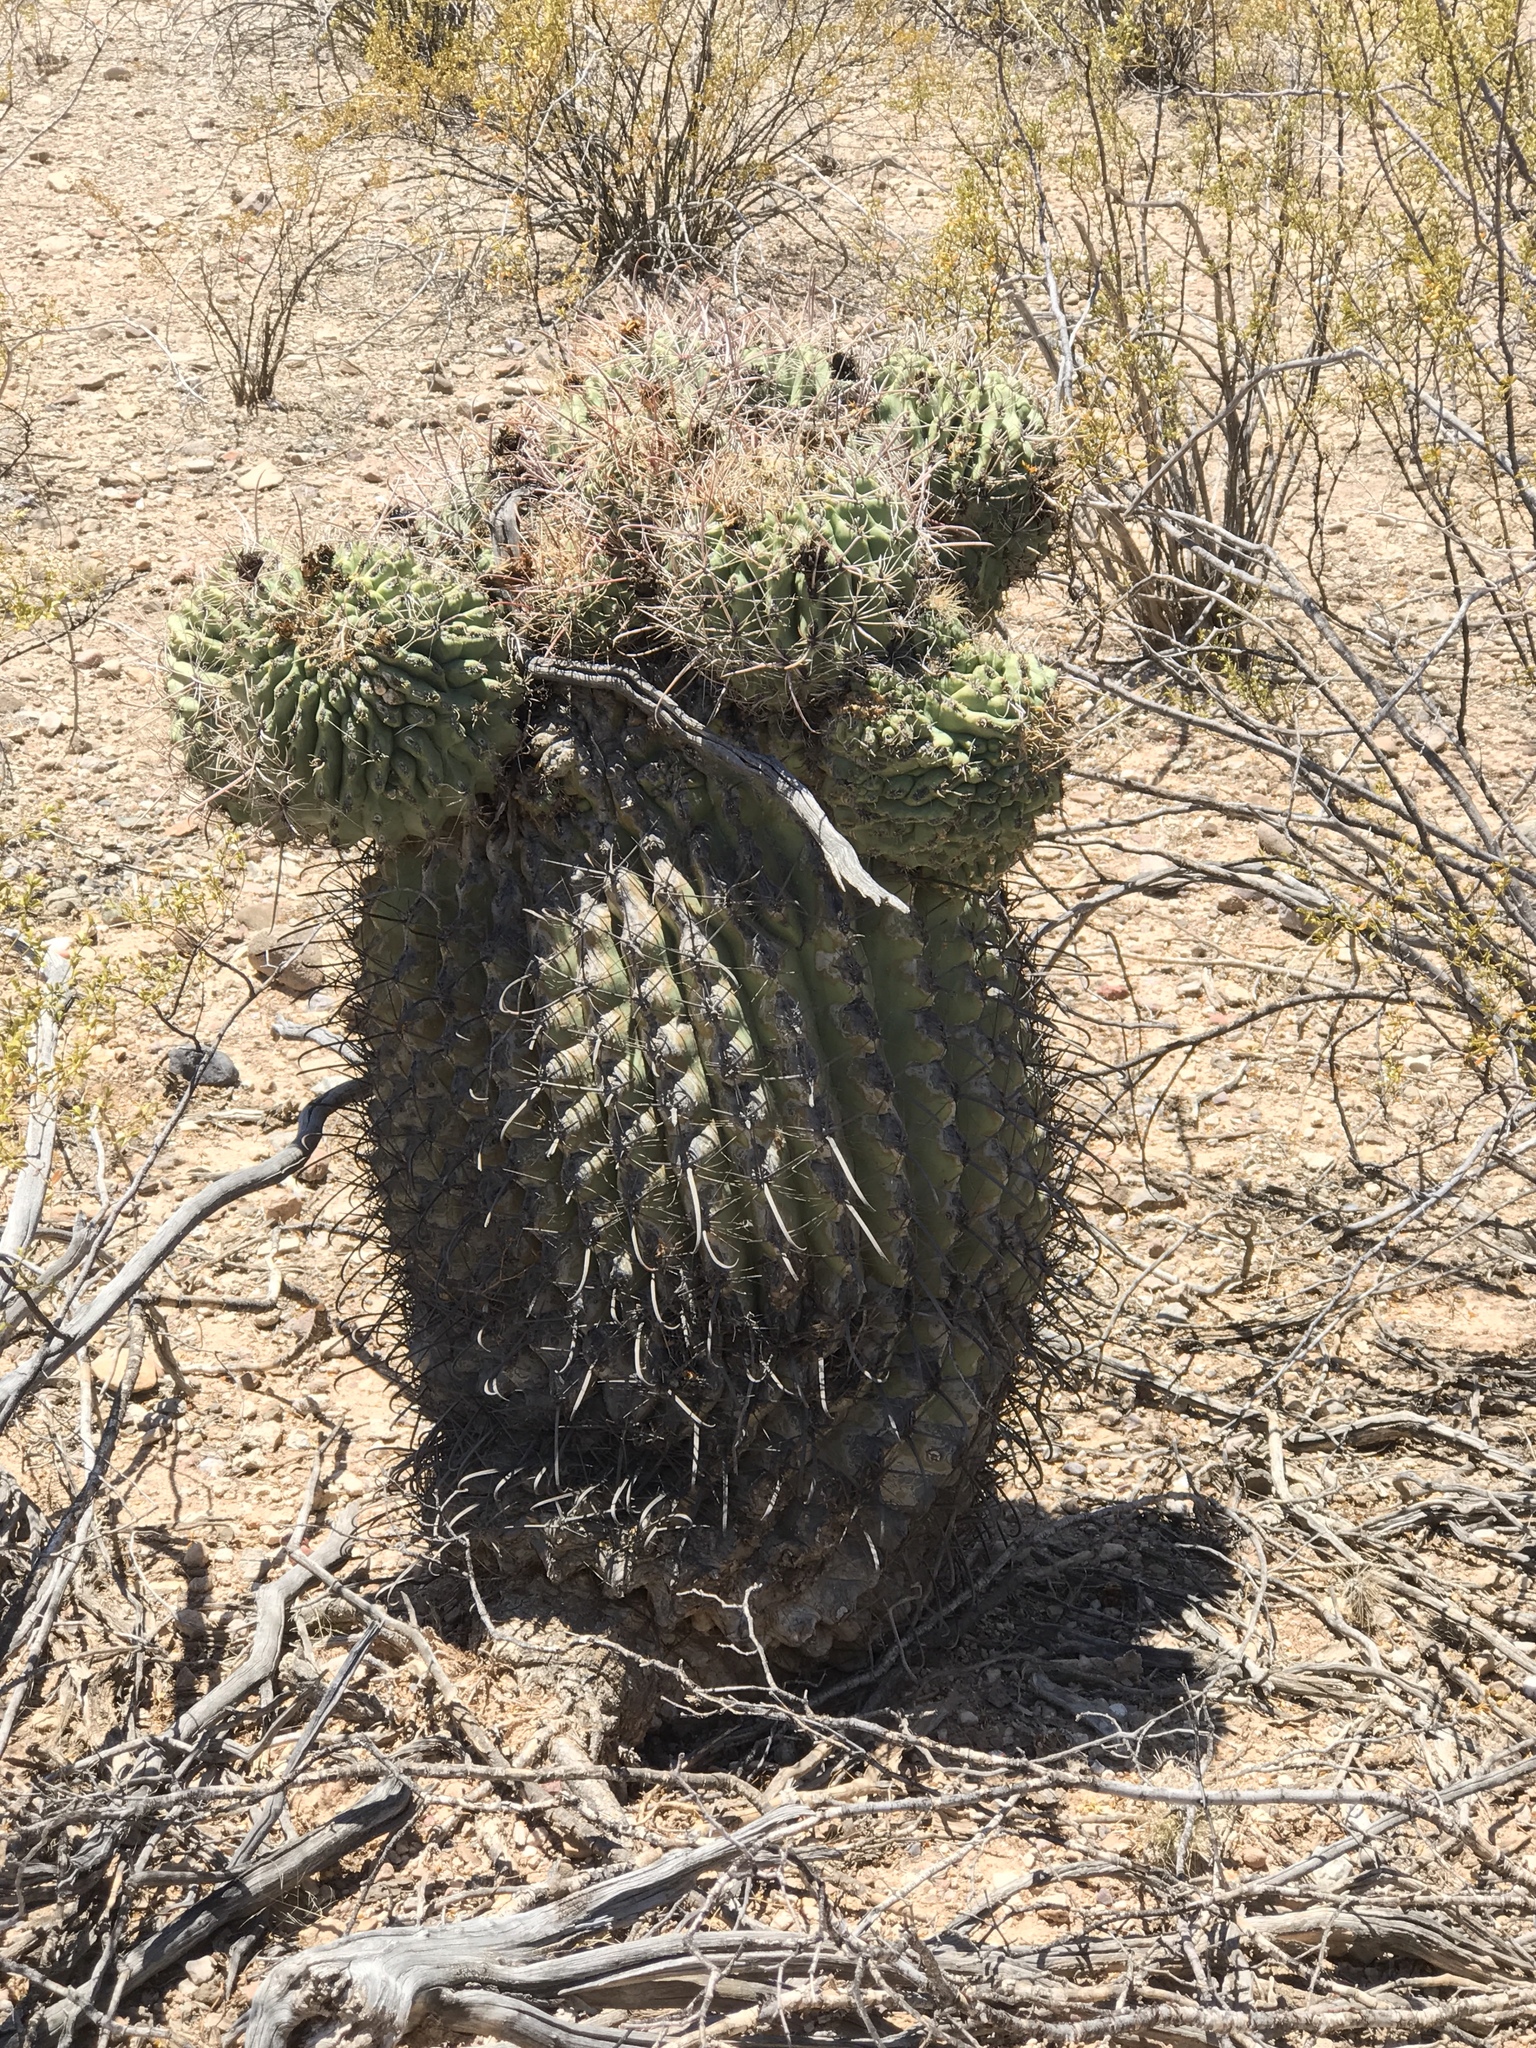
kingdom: Plantae
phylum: Tracheophyta
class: Magnoliopsida
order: Caryophyllales
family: Cactaceae
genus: Ferocactus
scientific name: Ferocactus wislizeni
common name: Candy barrel cactus
